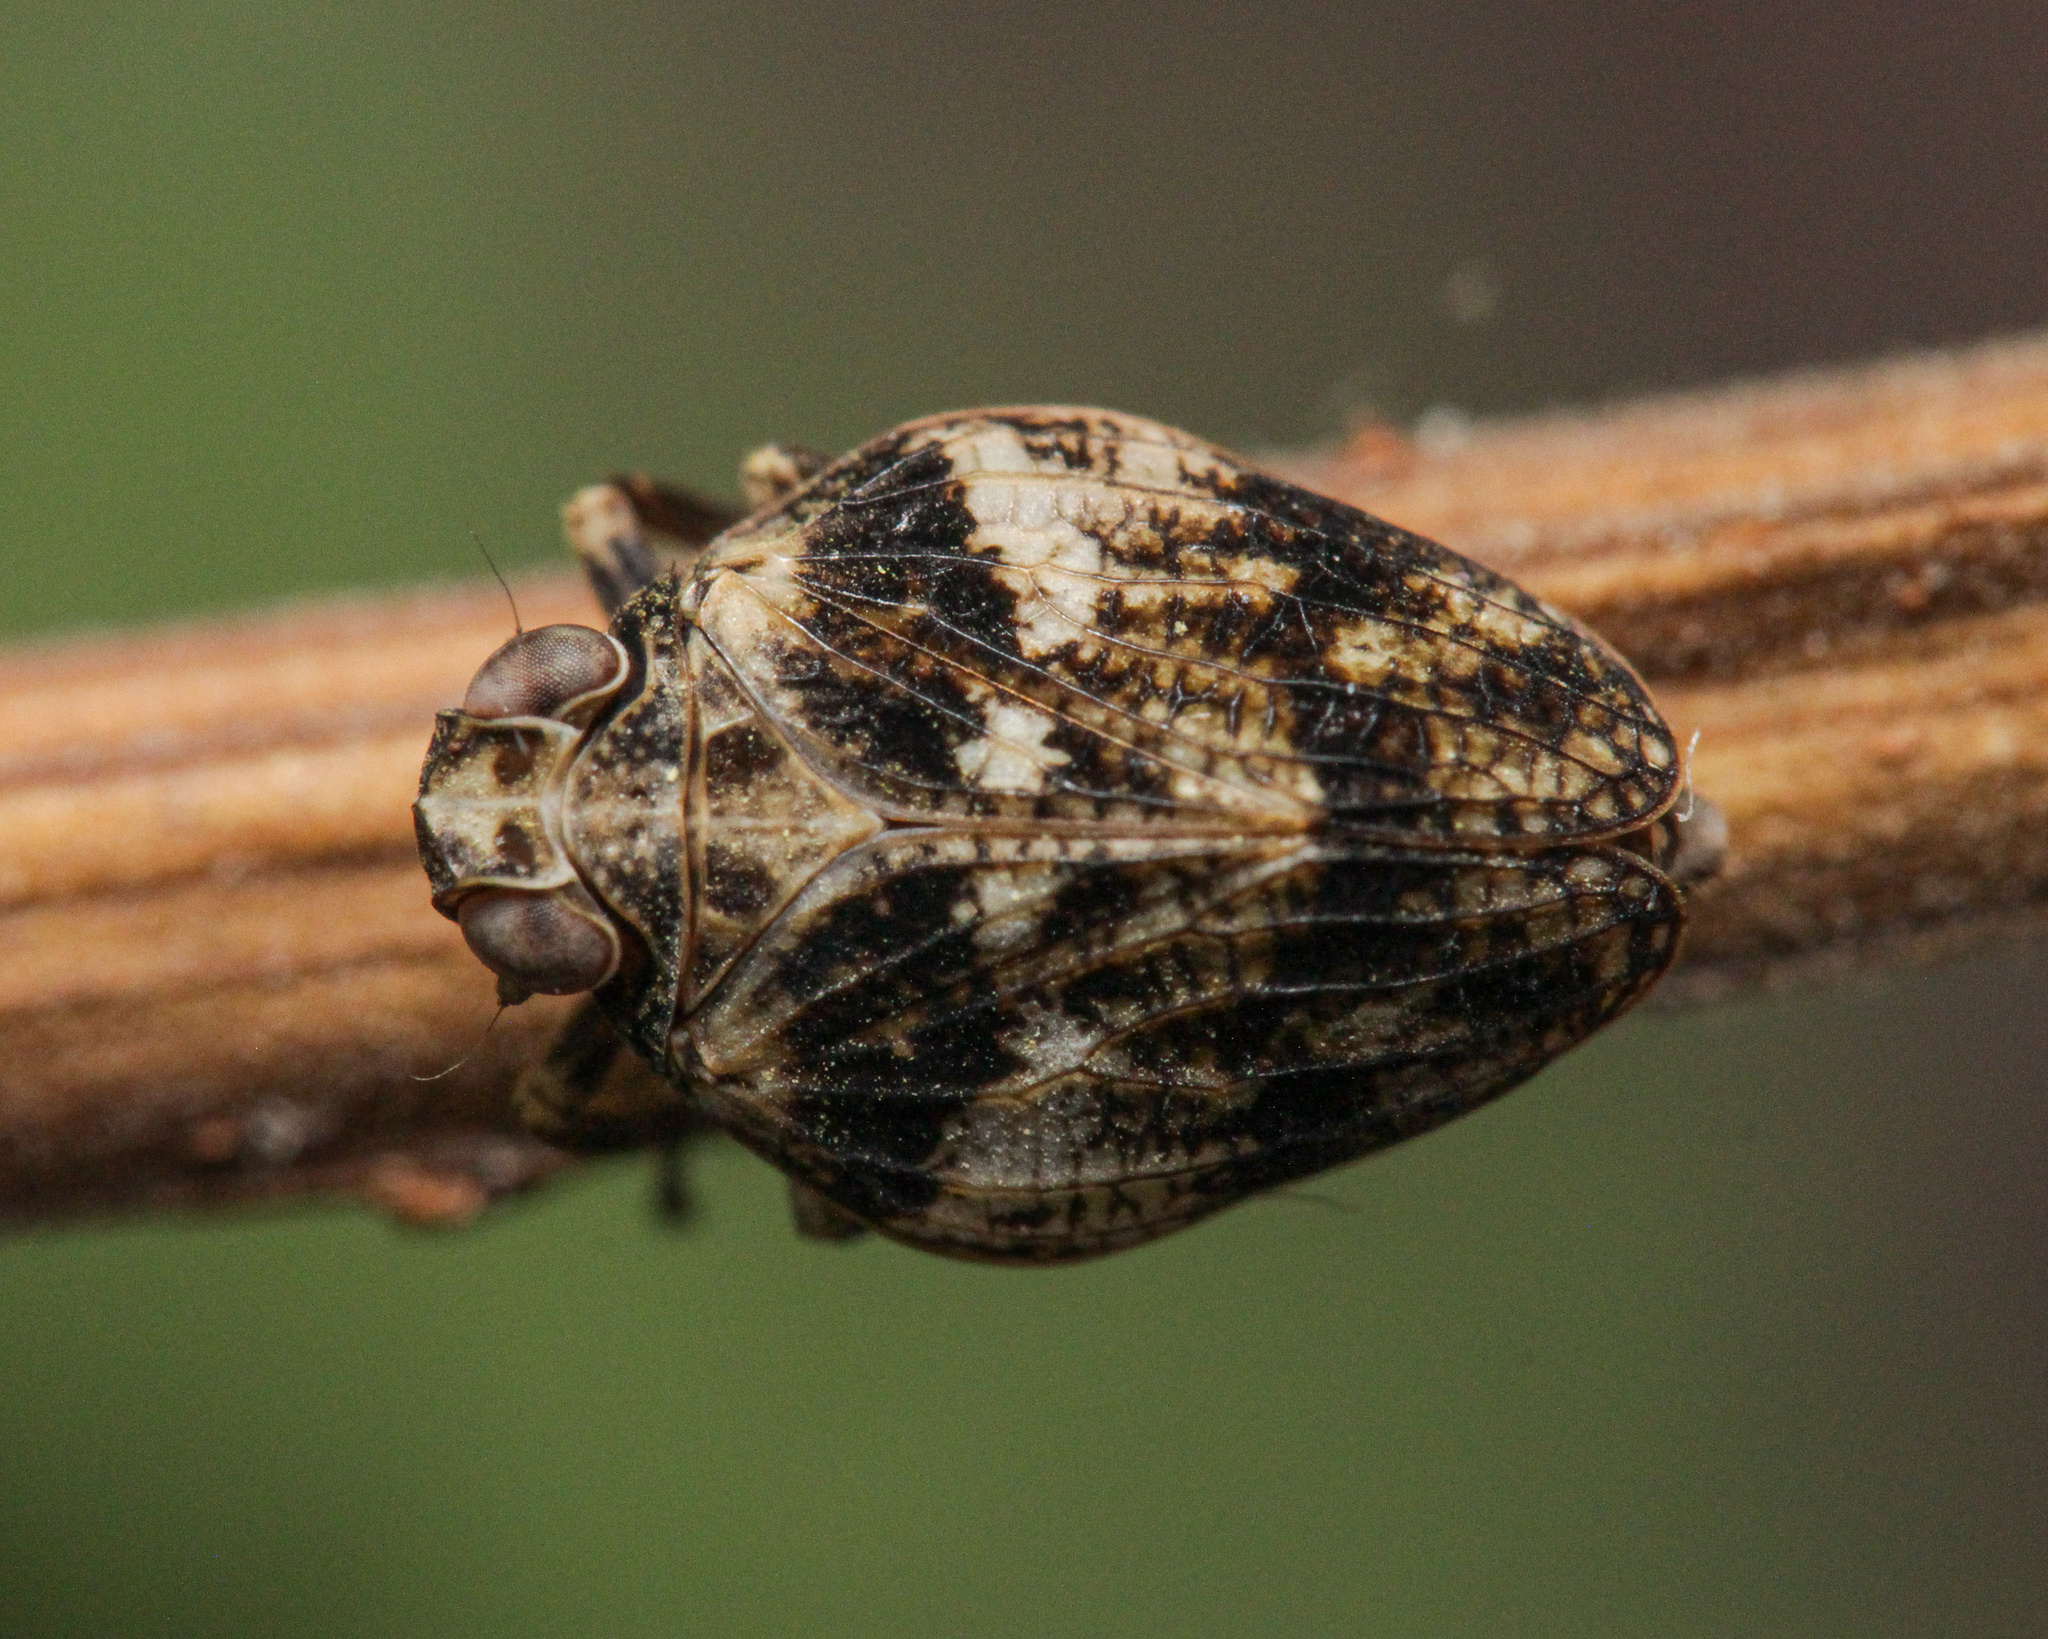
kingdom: Animalia
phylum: Arthropoda
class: Insecta
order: Hemiptera
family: Issidae
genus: Issus
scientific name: Issus muscaeformis
